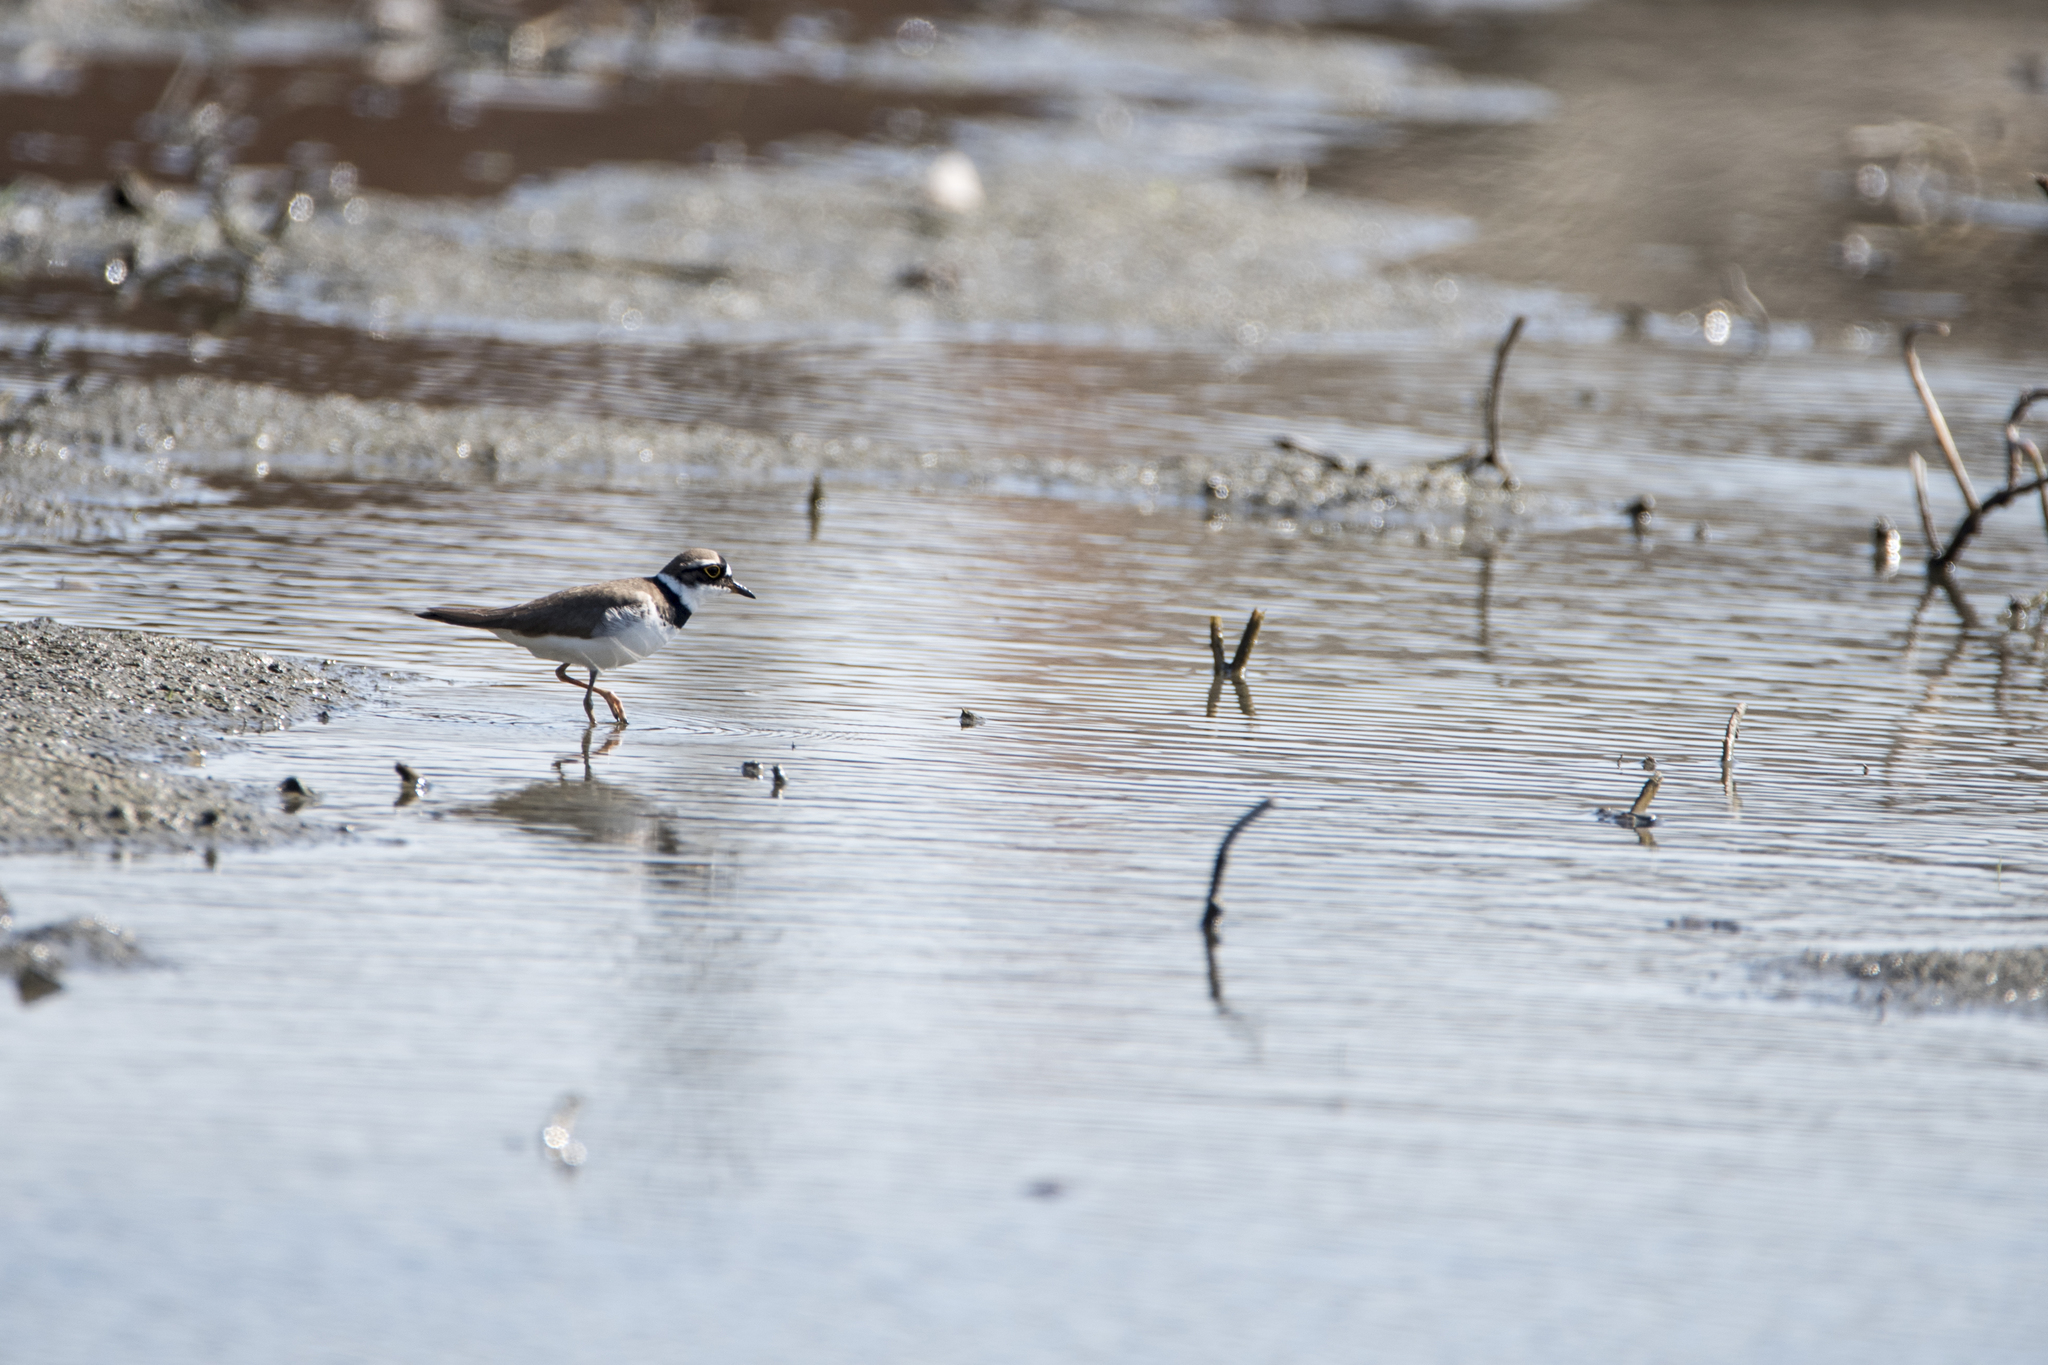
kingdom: Animalia
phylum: Chordata
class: Aves
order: Charadriiformes
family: Charadriidae
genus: Charadrius
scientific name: Charadrius dubius
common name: Little ringed plover
